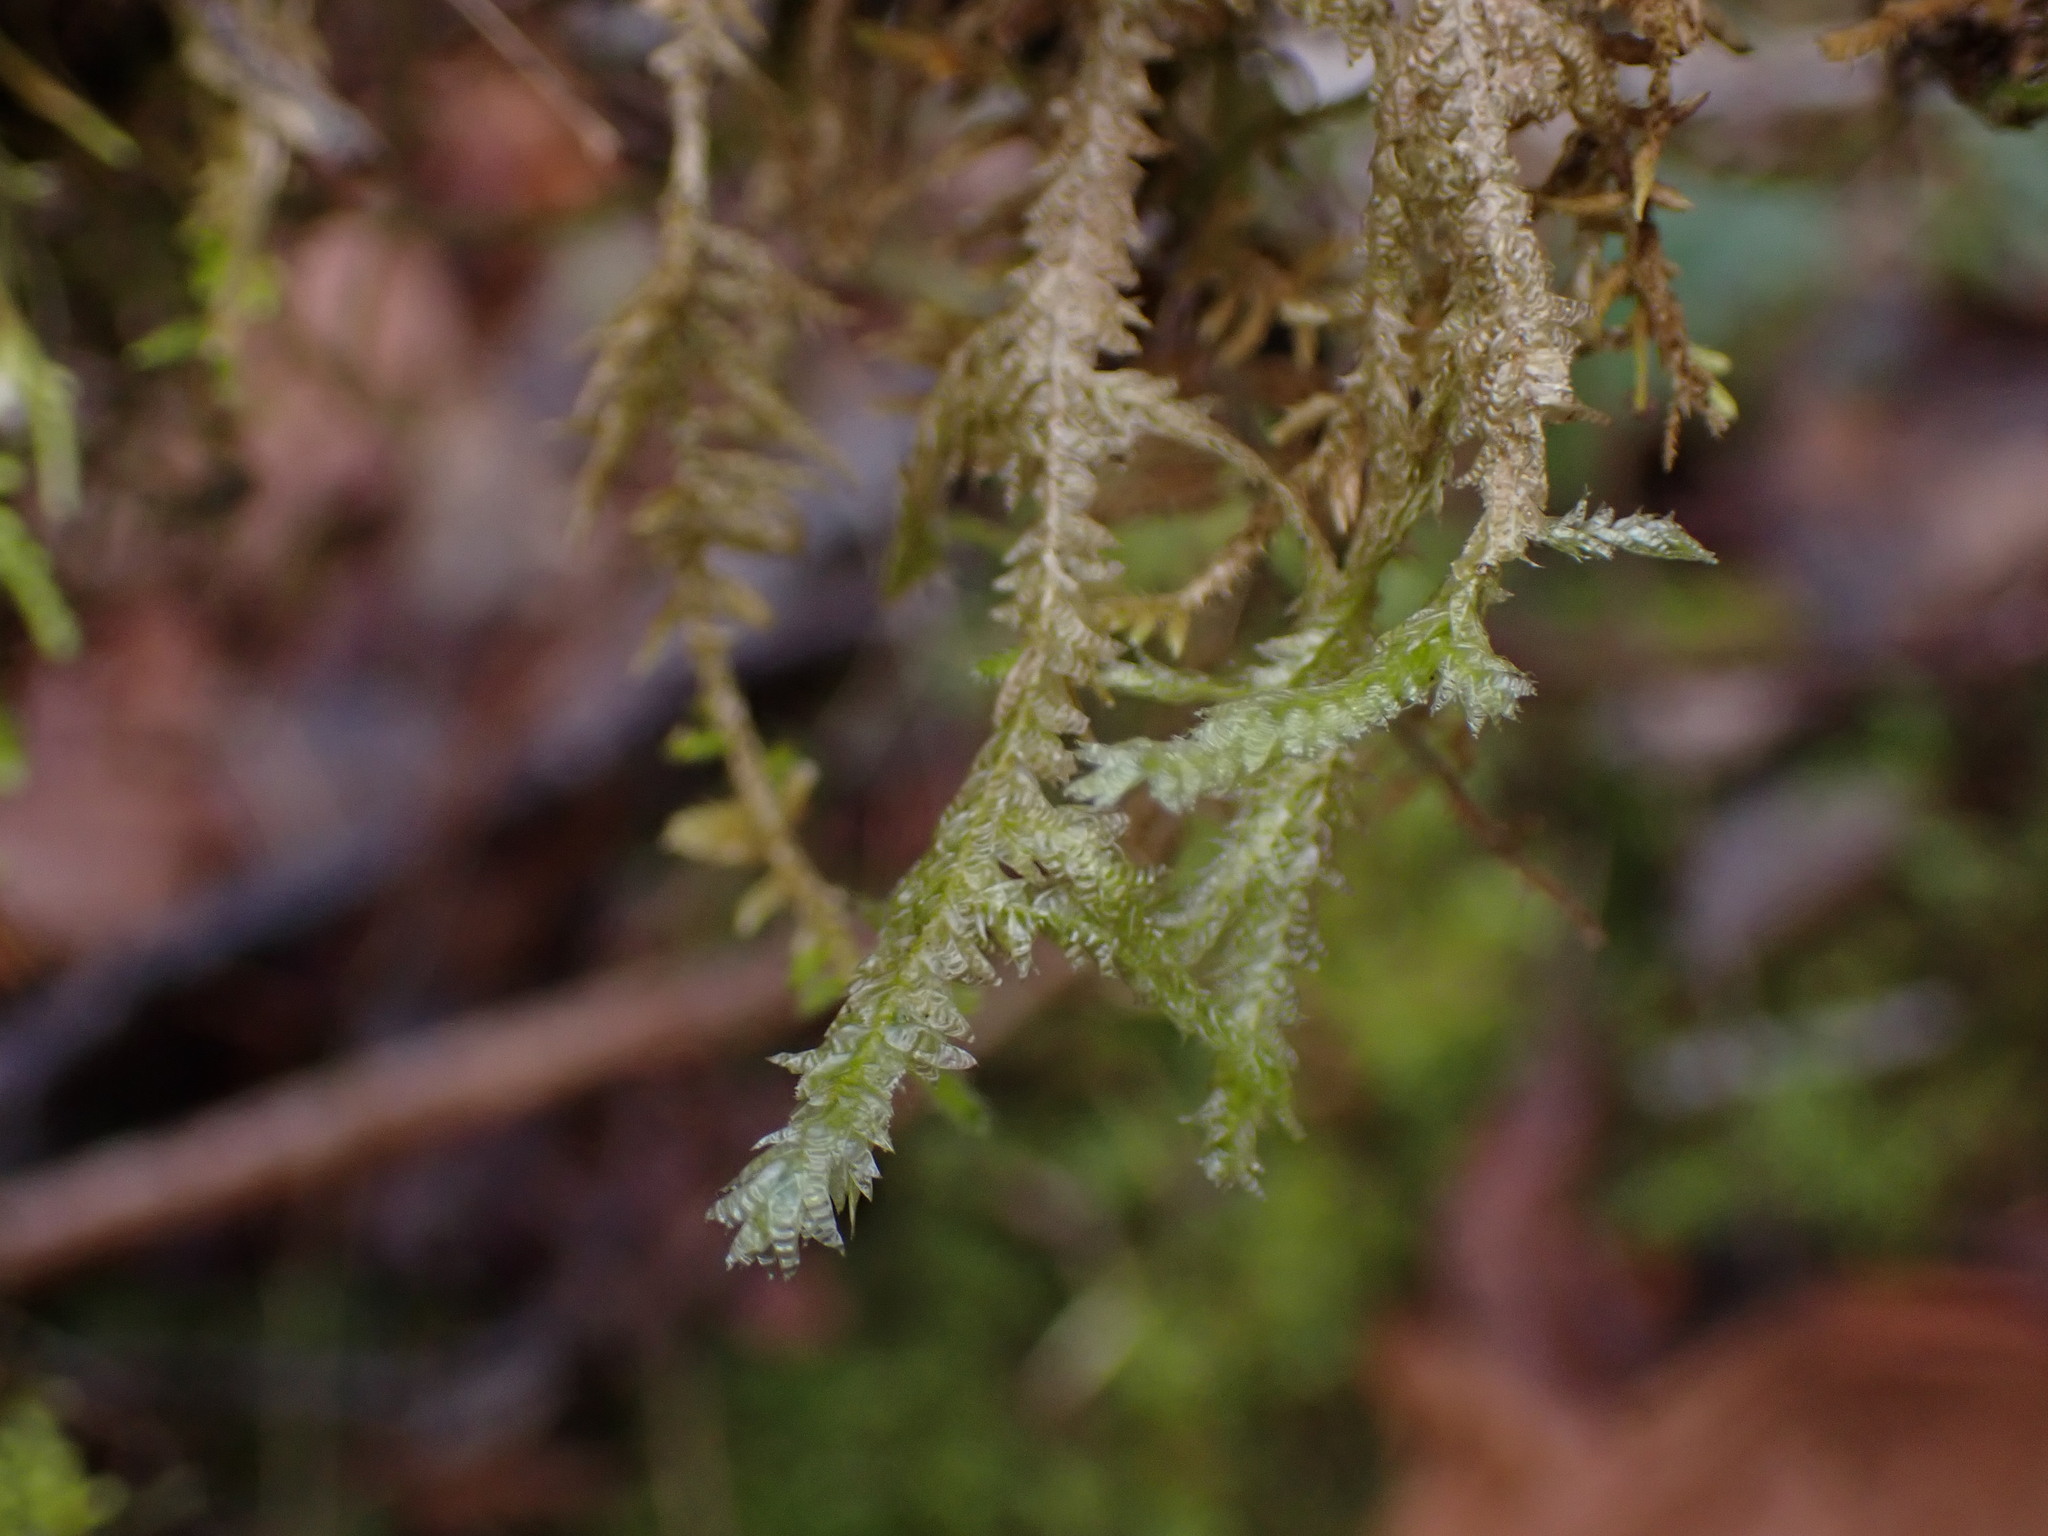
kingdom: Plantae
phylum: Bryophyta
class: Bryopsida
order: Hypnales
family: Neckeraceae
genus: Neckera
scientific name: Neckera douglasii
